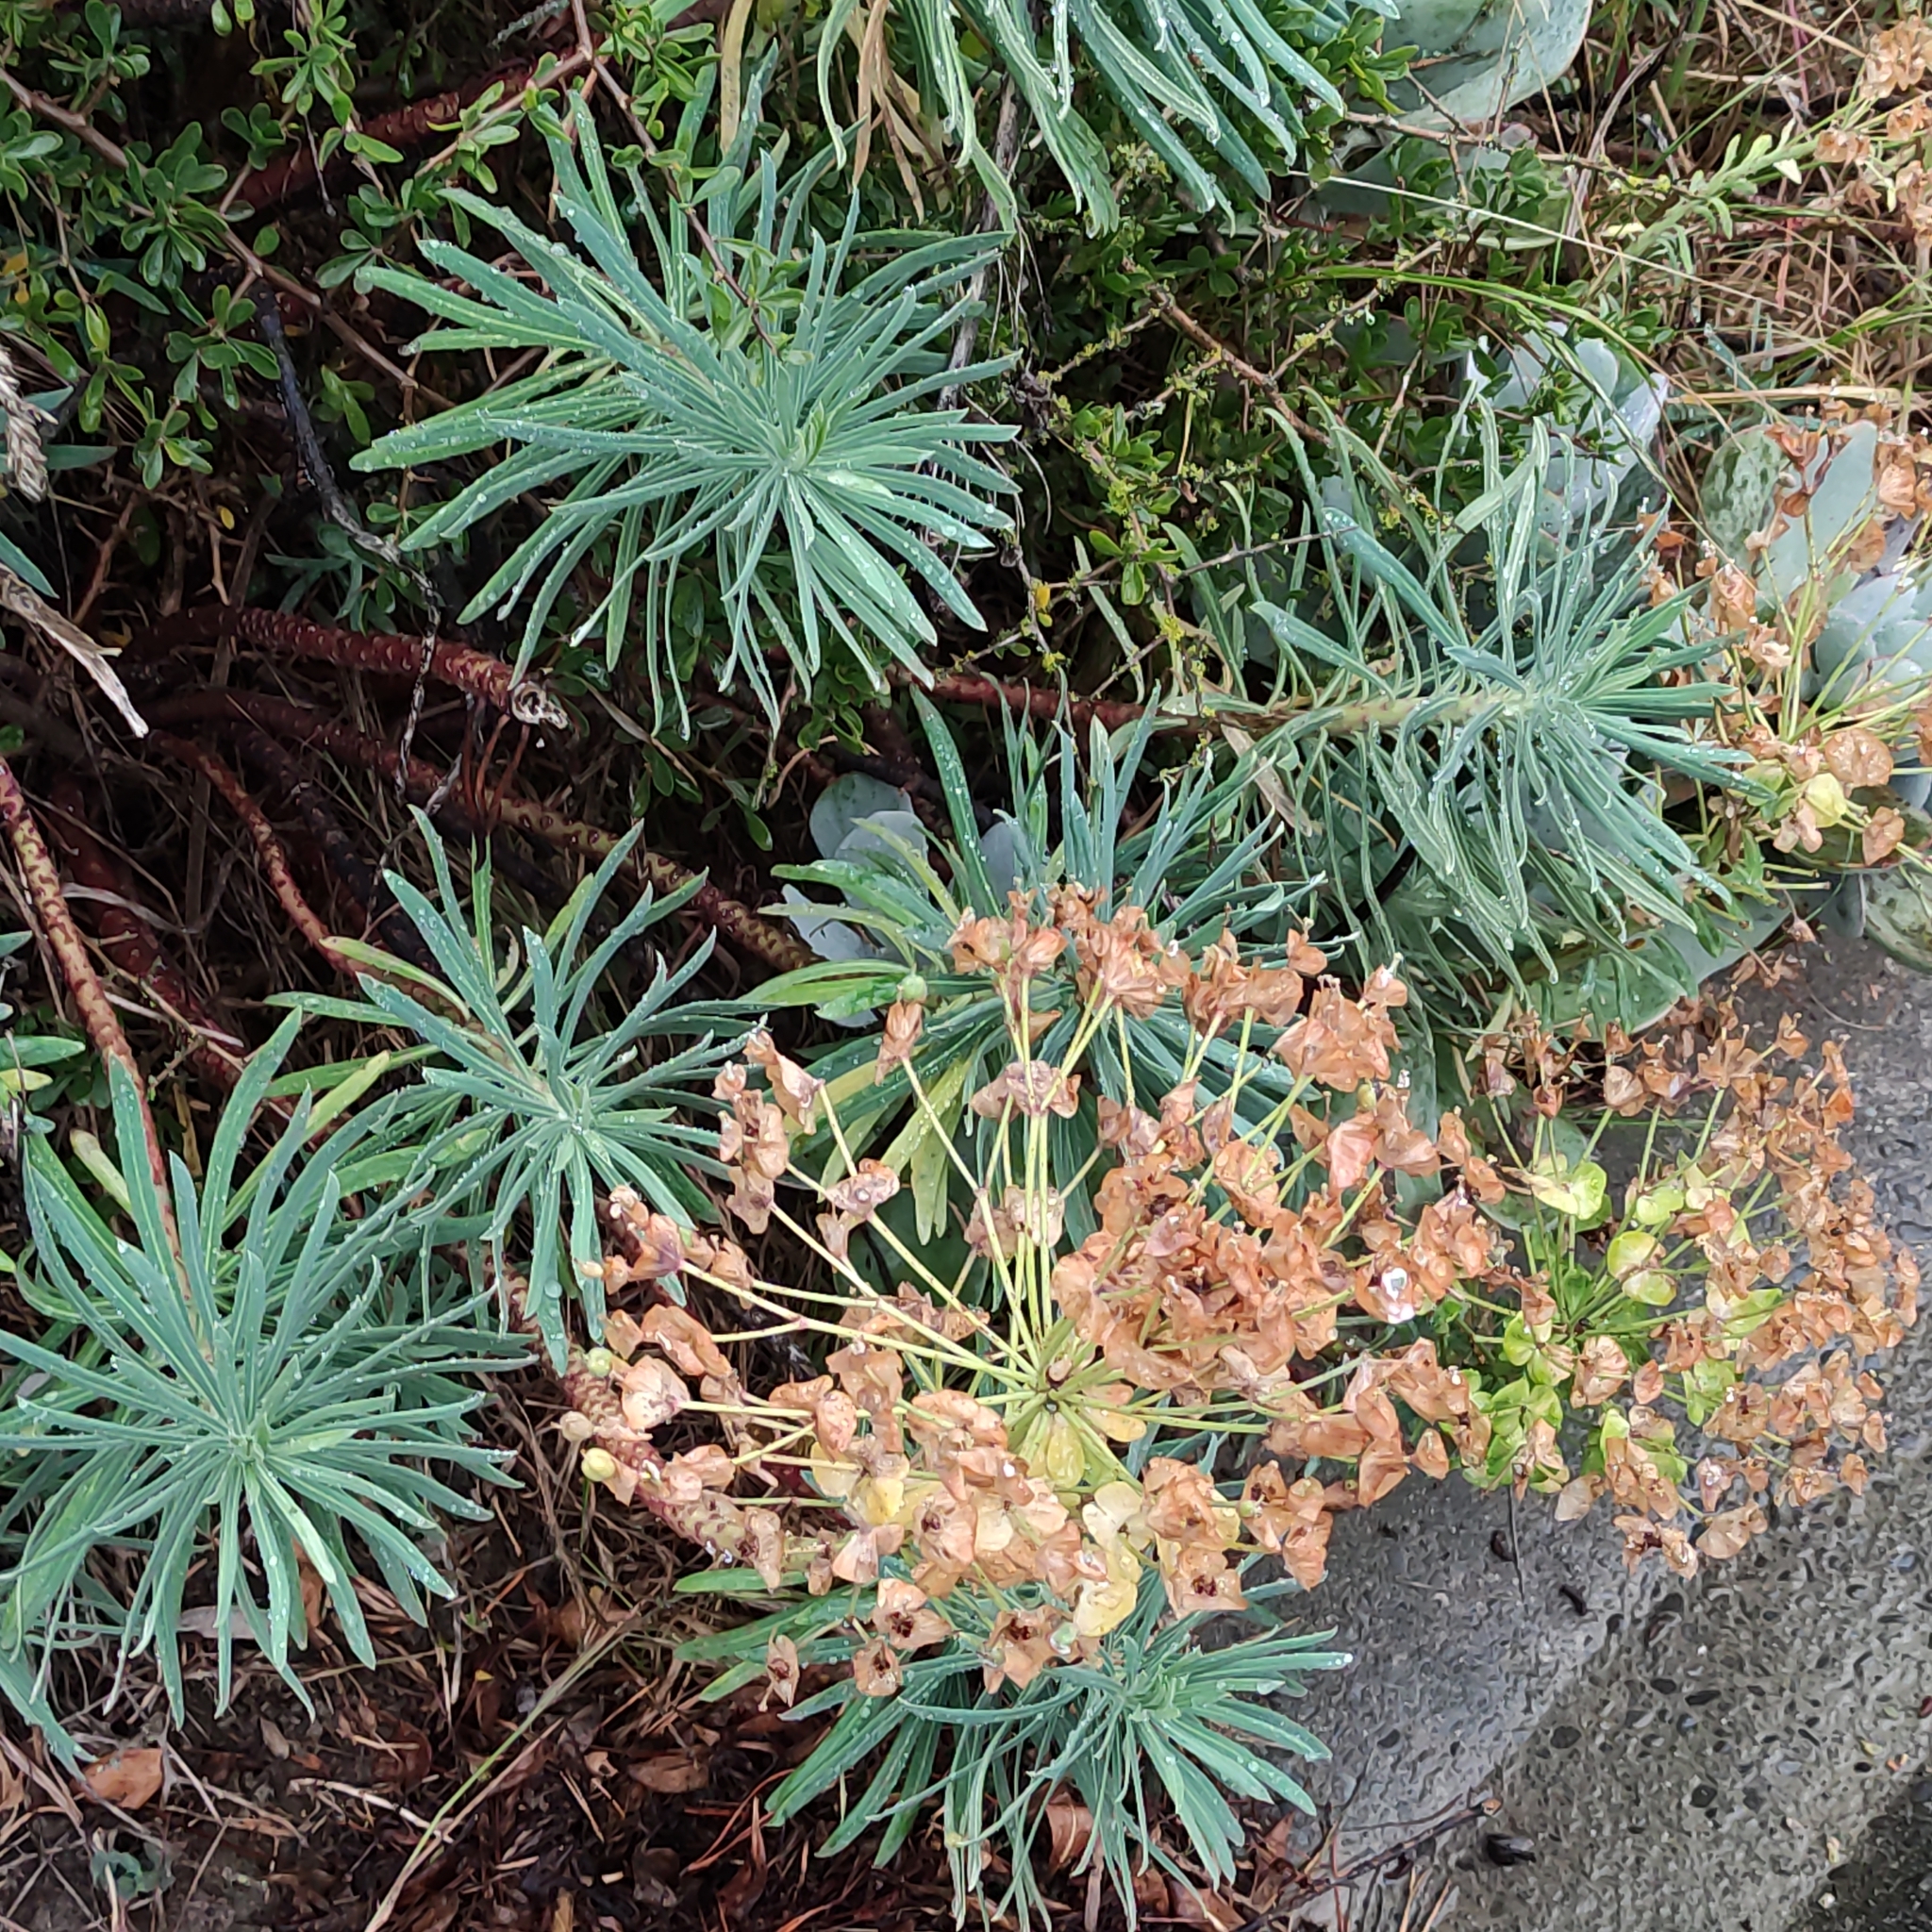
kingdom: Plantae
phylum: Tracheophyta
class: Magnoliopsida
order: Malpighiales
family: Euphorbiaceae
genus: Euphorbia
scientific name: Euphorbia characias
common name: Mediterranean spurge
